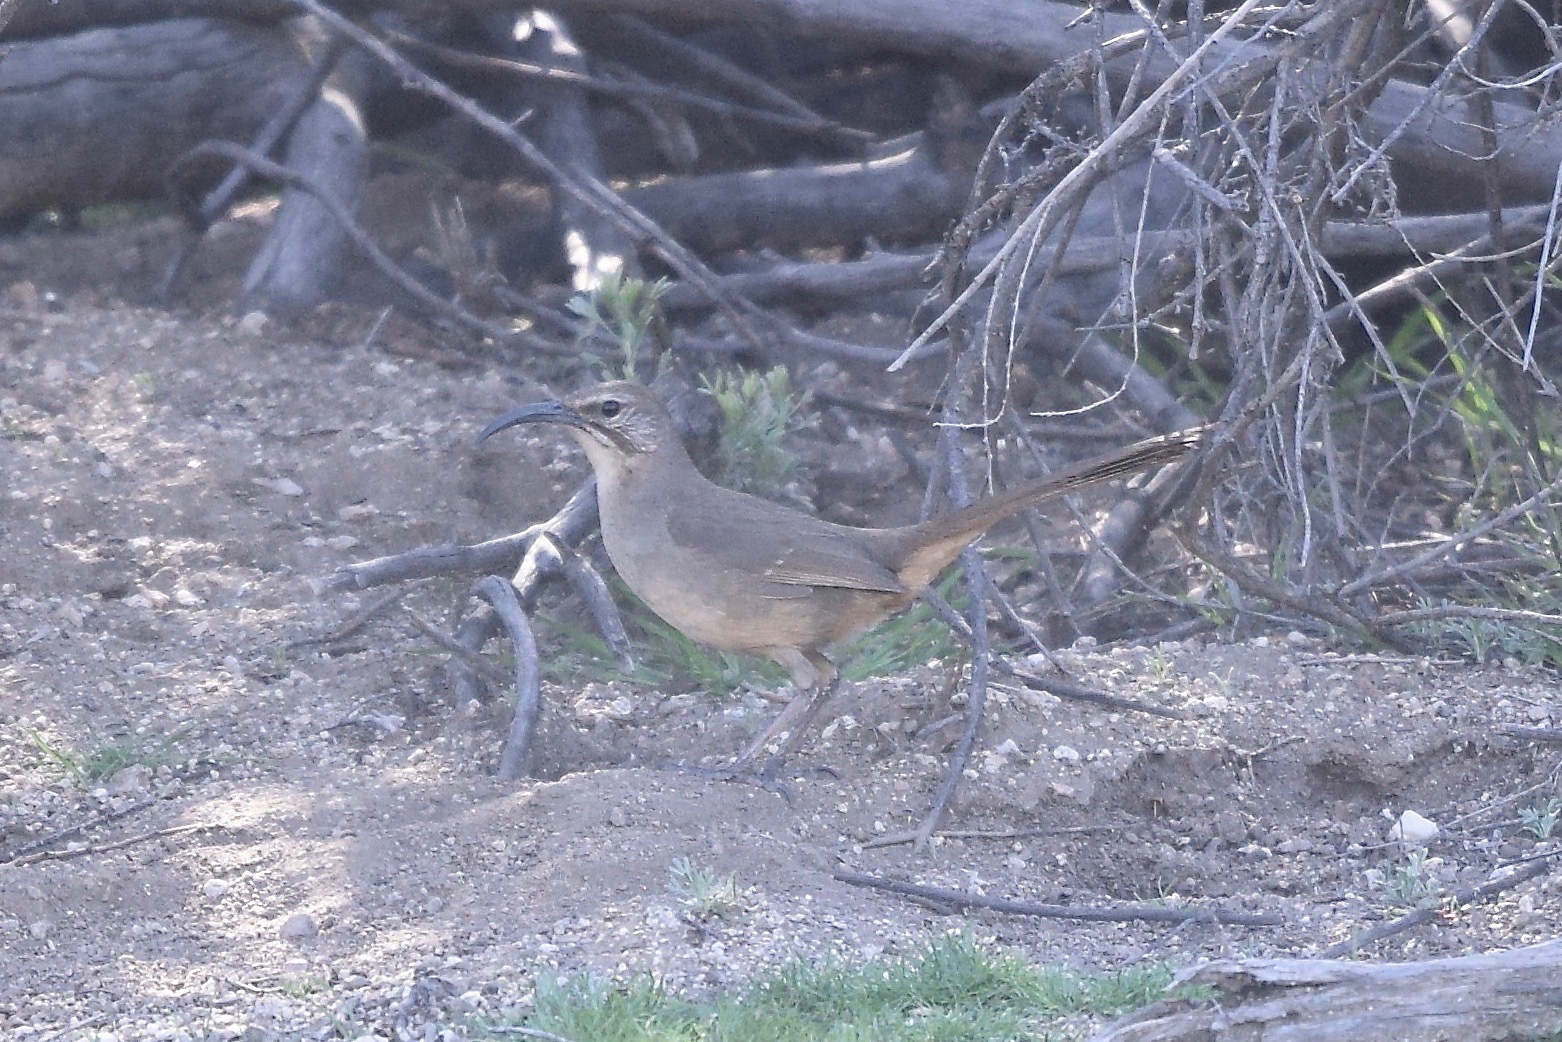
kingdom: Animalia
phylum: Chordata
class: Aves
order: Passeriformes
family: Mimidae
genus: Toxostoma
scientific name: Toxostoma redivivum
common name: California thrasher
